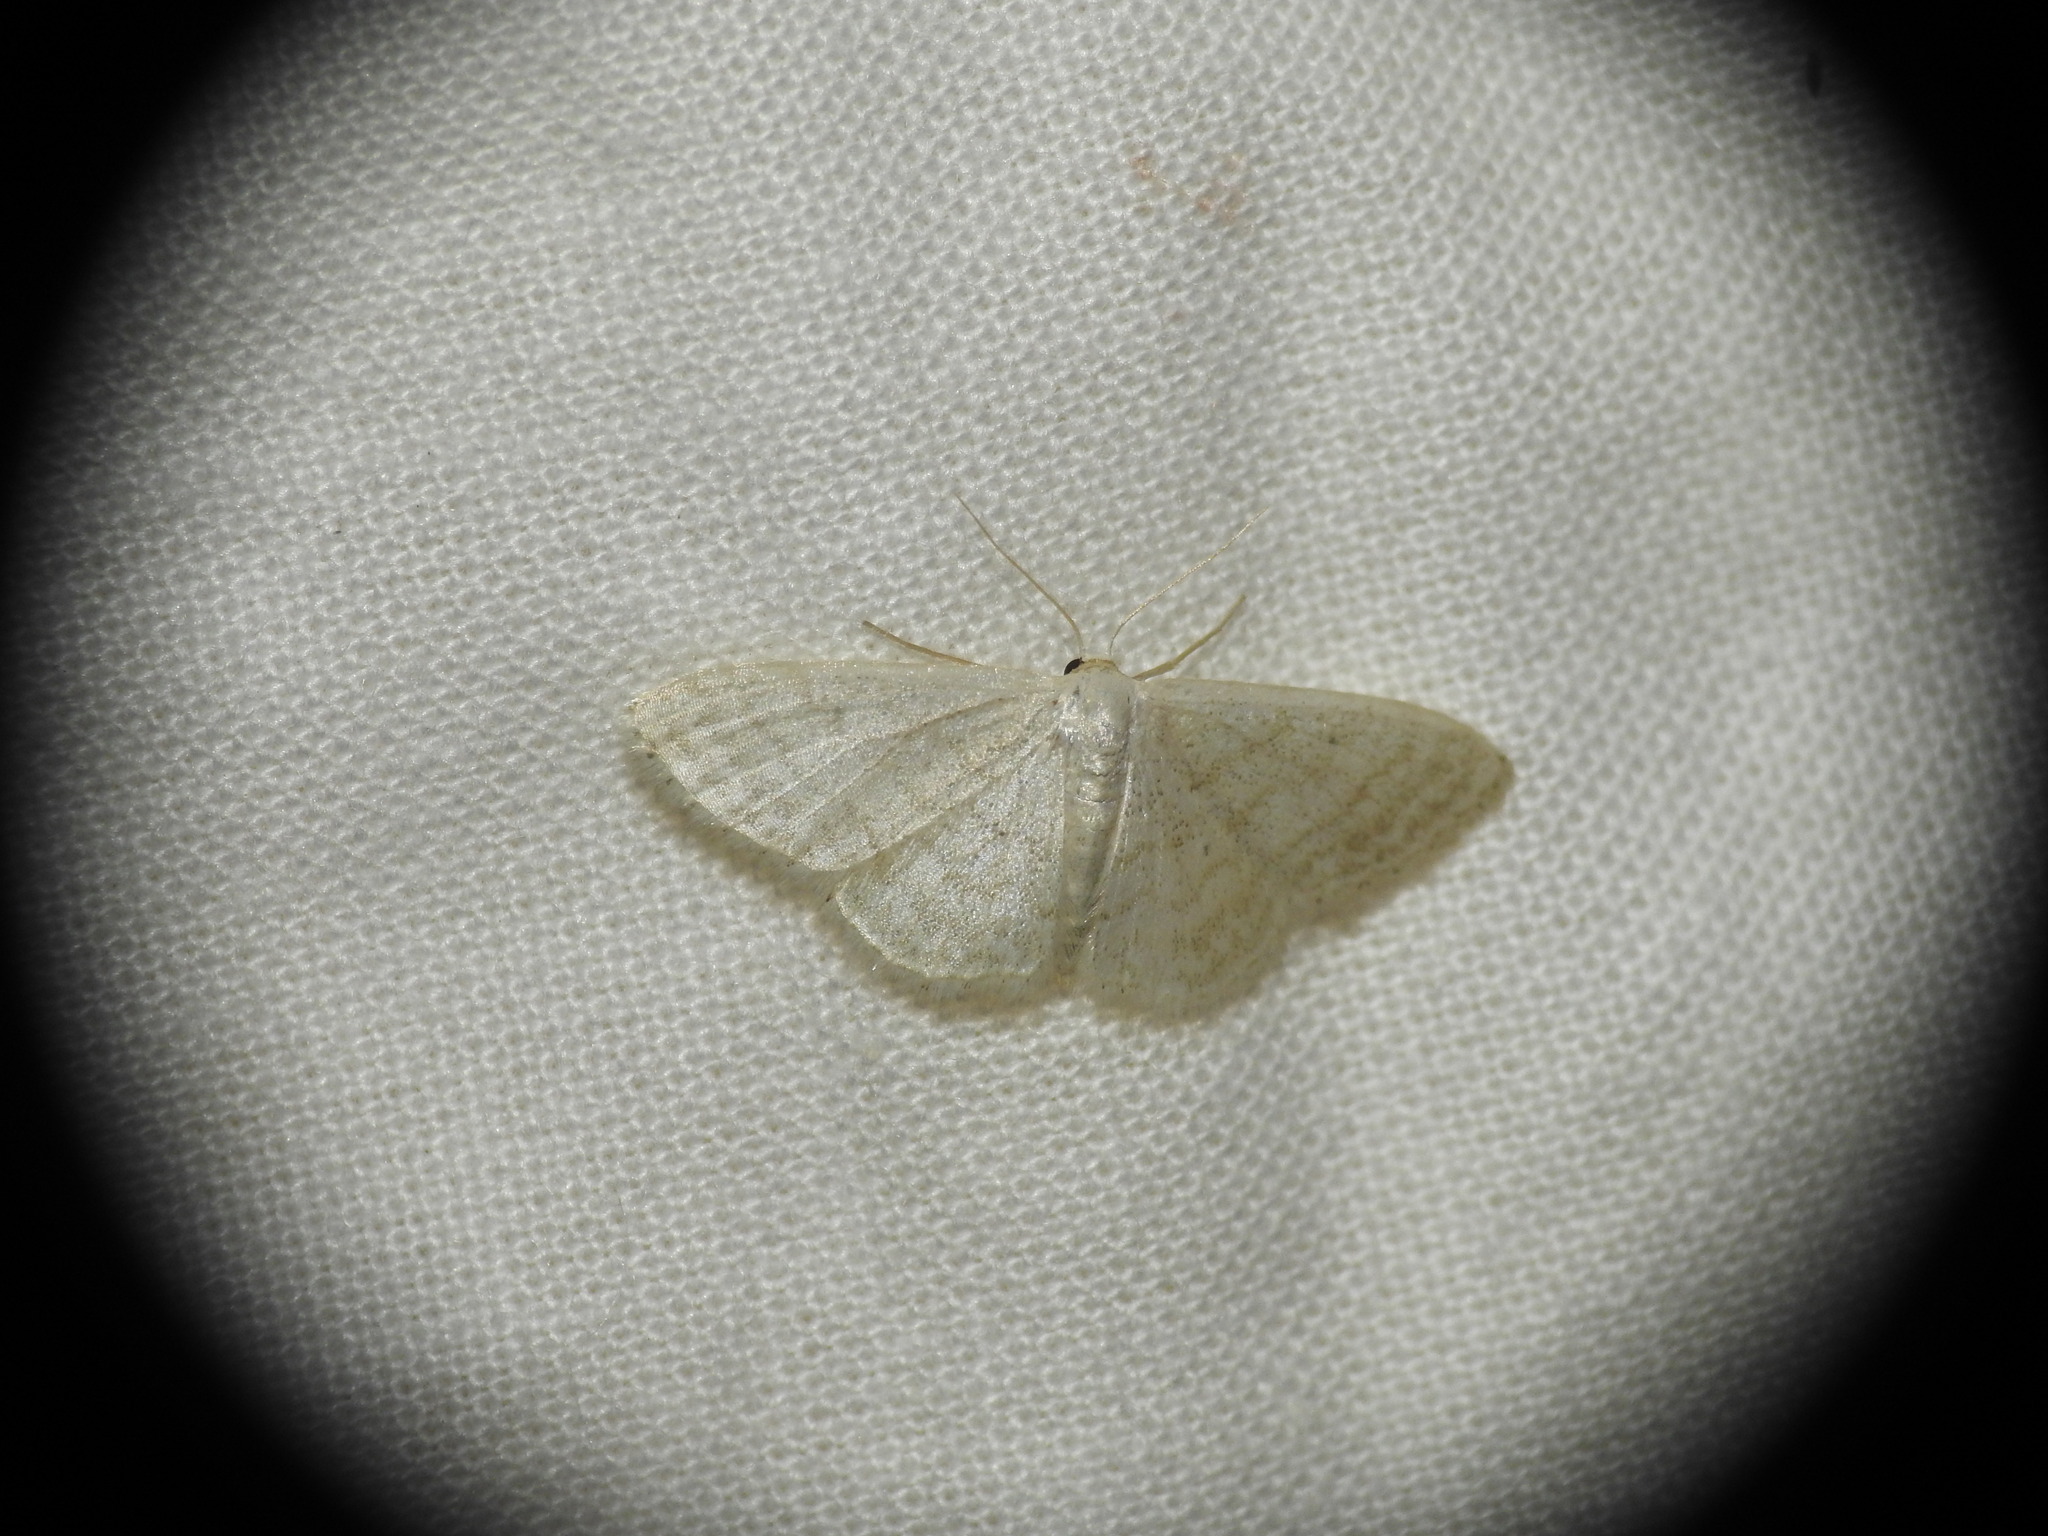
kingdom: Animalia
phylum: Arthropoda
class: Insecta
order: Lepidoptera
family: Geometridae
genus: Idaea
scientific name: Idaea subsericeata
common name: Satin wave
